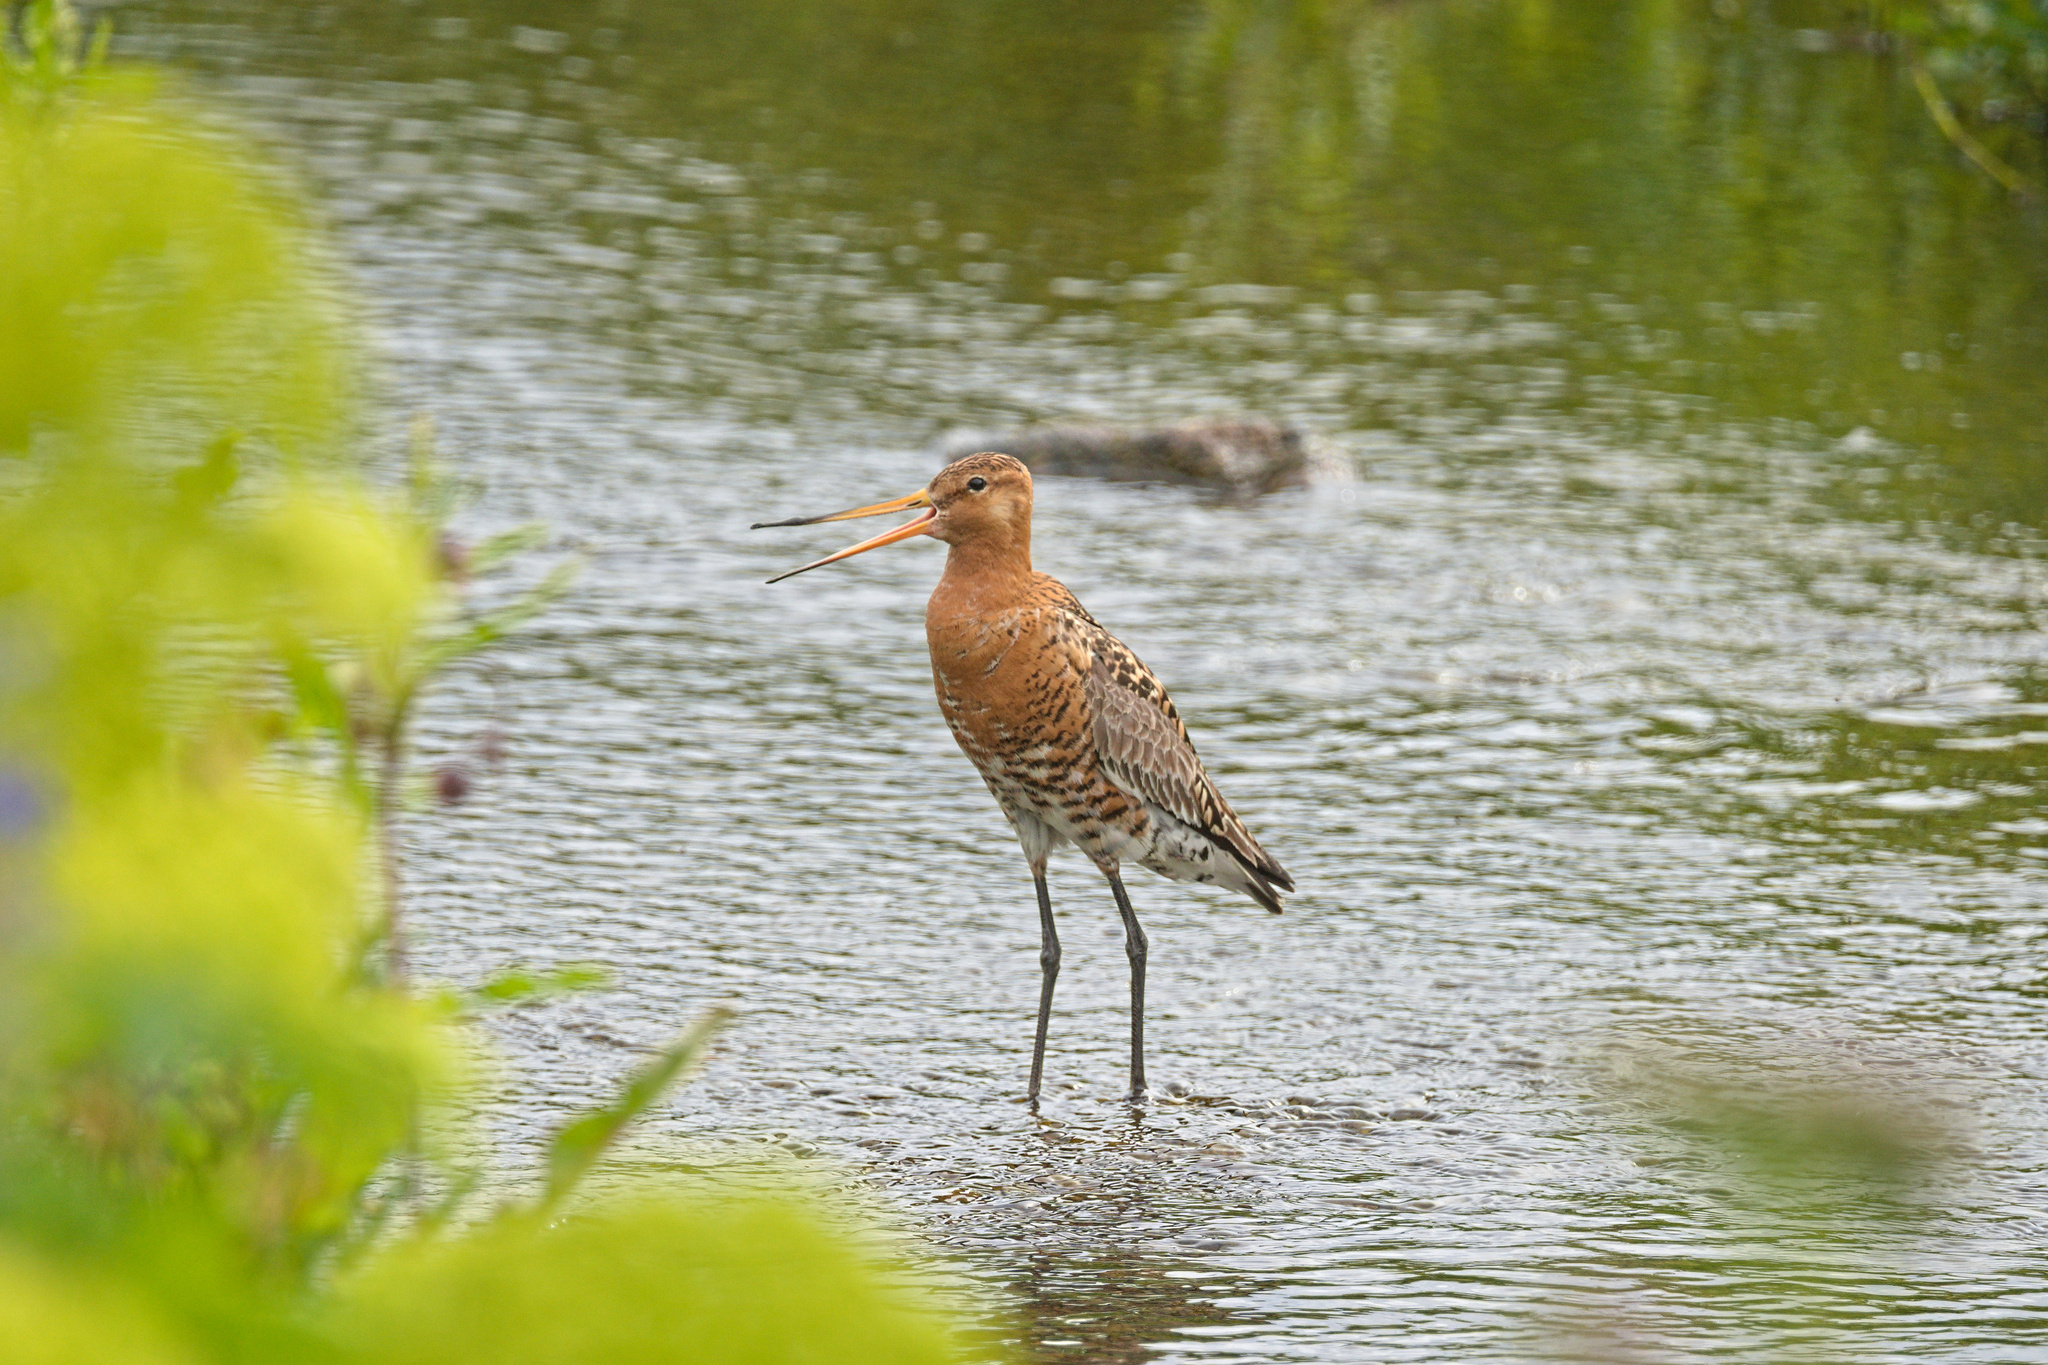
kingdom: Animalia
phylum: Chordata
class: Aves
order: Charadriiformes
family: Scolopacidae
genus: Limosa
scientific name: Limosa limosa
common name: Black-tailed godwit
